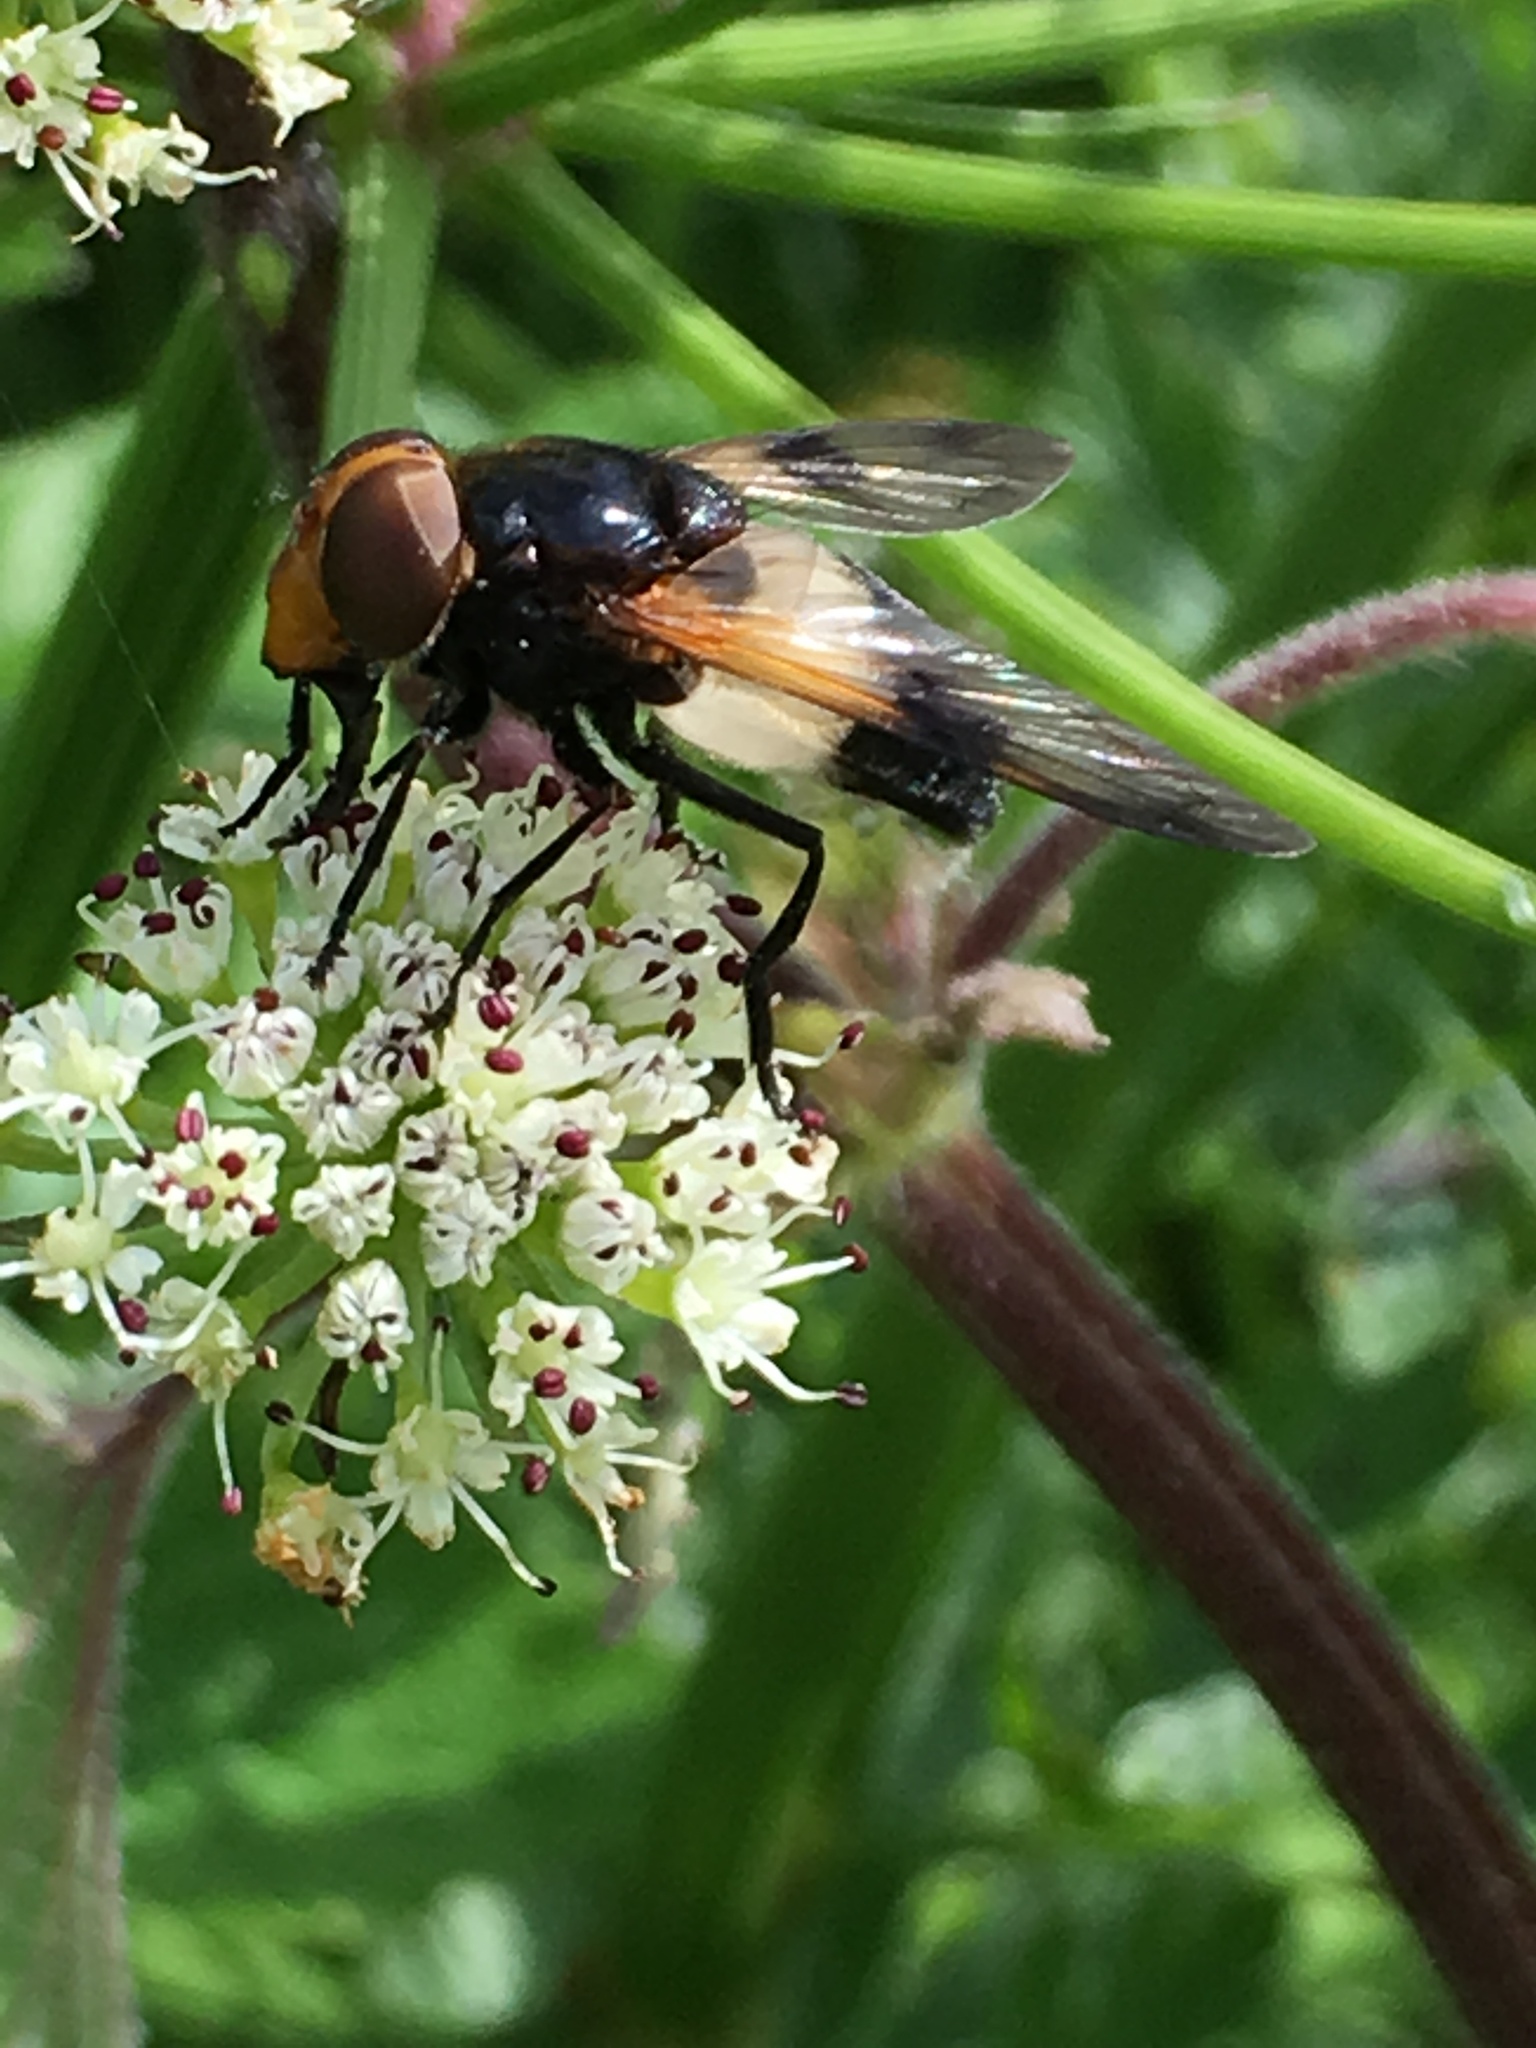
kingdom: Animalia
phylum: Arthropoda
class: Insecta
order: Diptera
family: Syrphidae
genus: Volucella
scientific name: Volucella pellucens
